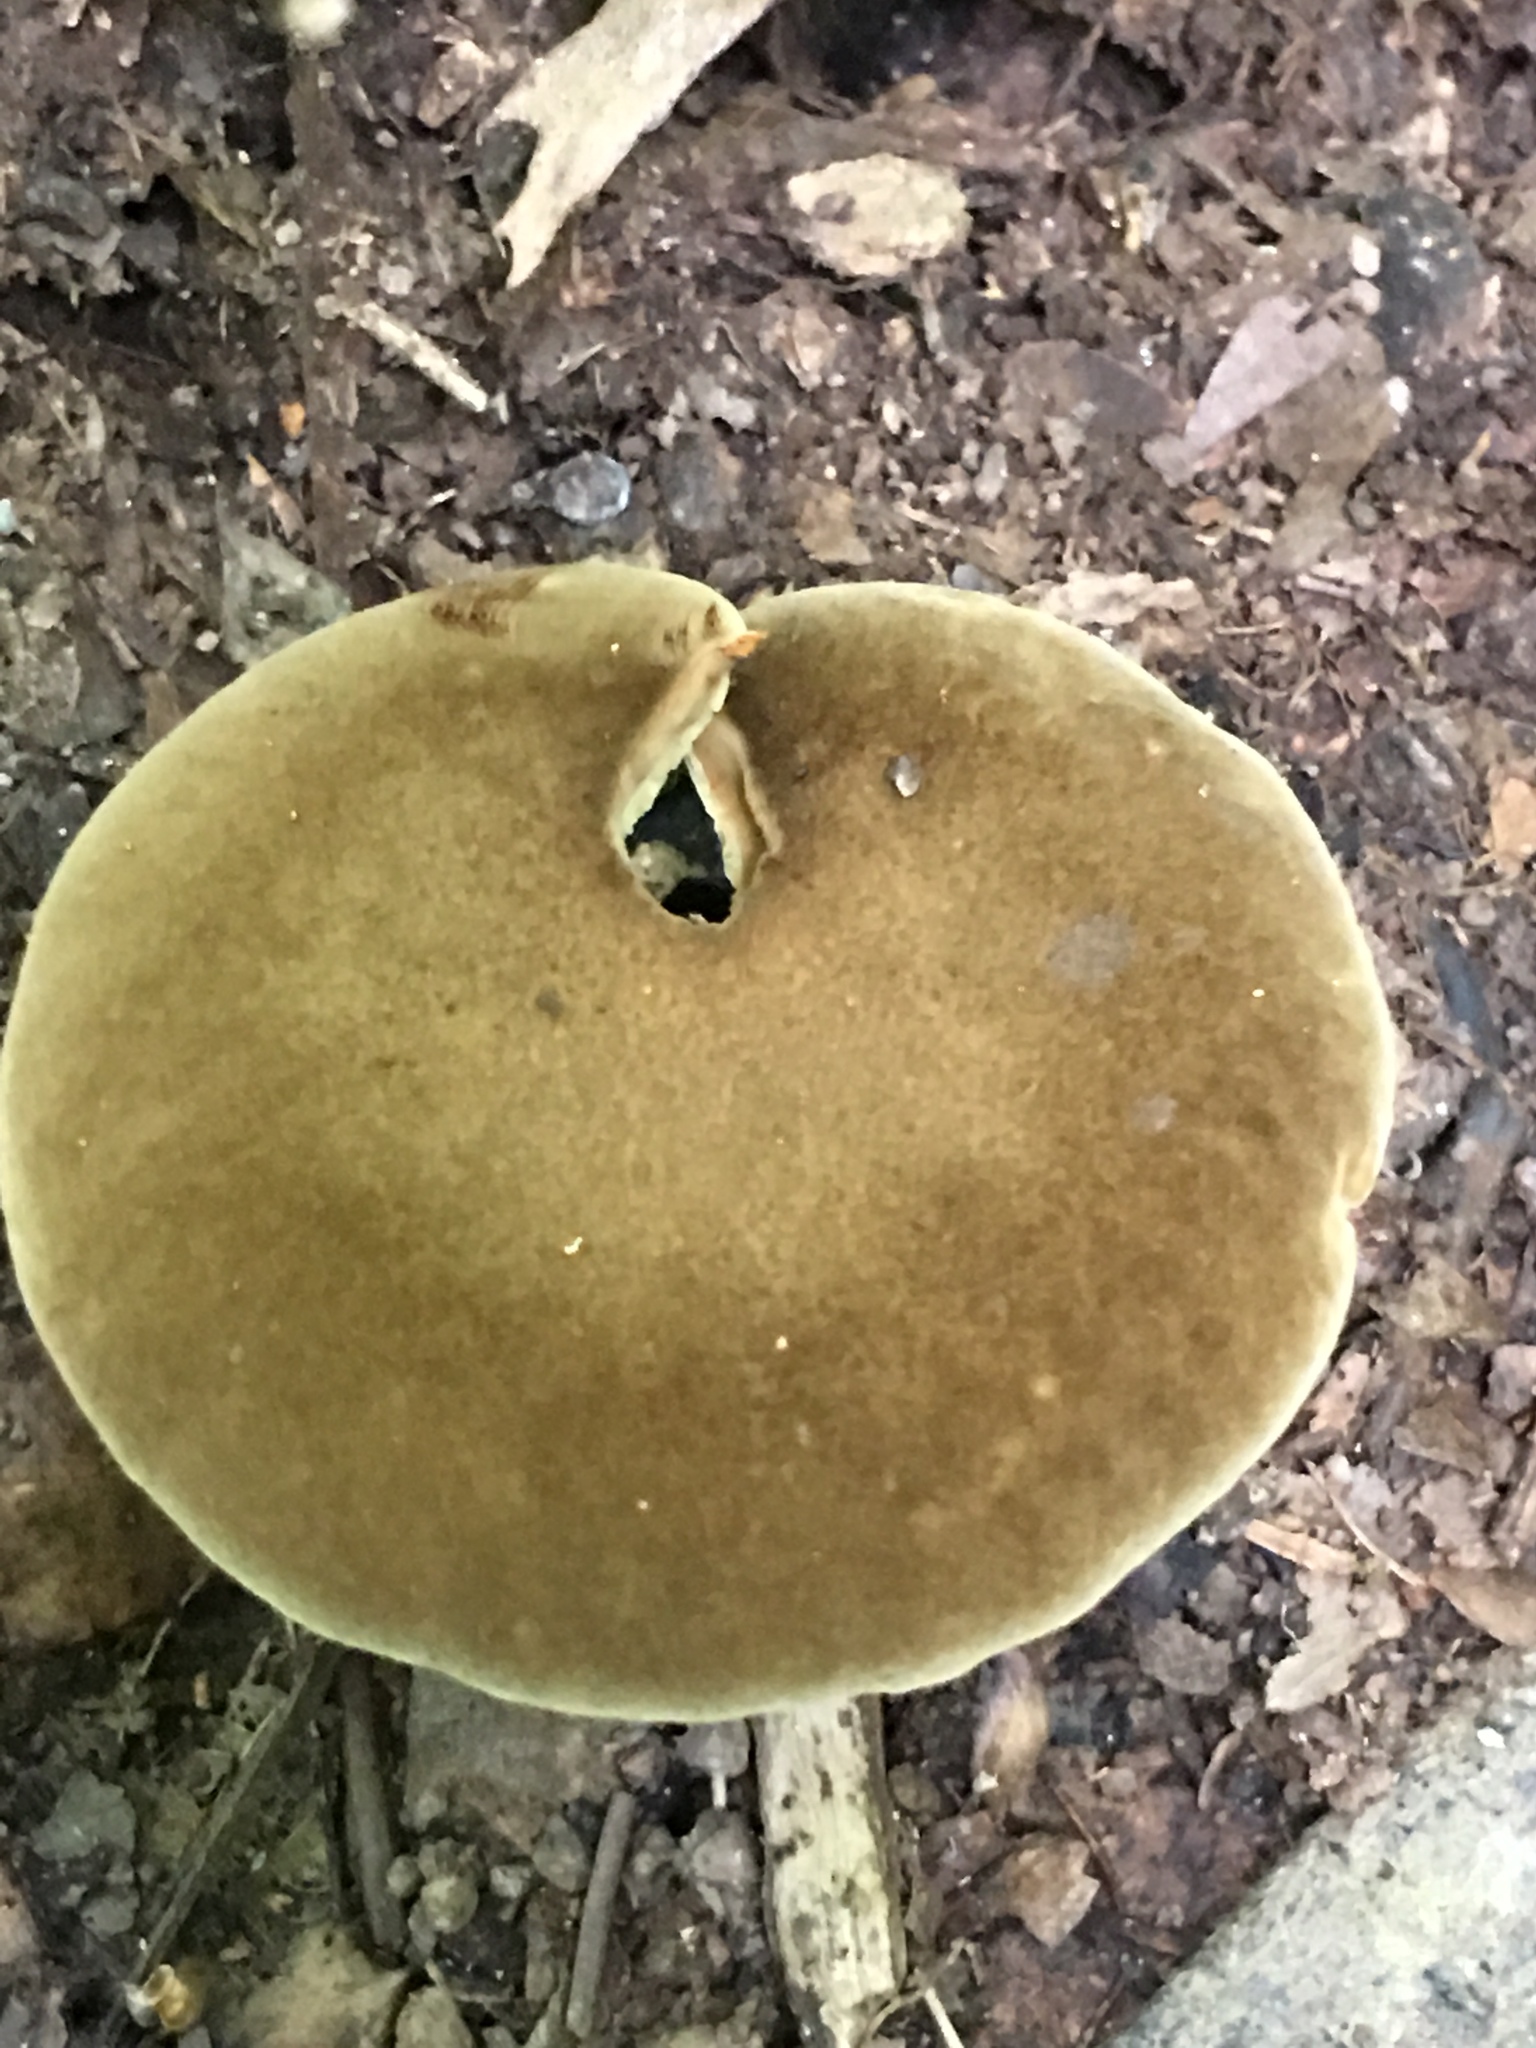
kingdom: Fungi
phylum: Basidiomycota
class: Agaricomycetes
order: Boletales
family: Boletinellaceae
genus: Boletinellus
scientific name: Boletinellus merulioides
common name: Ash tree bolete
